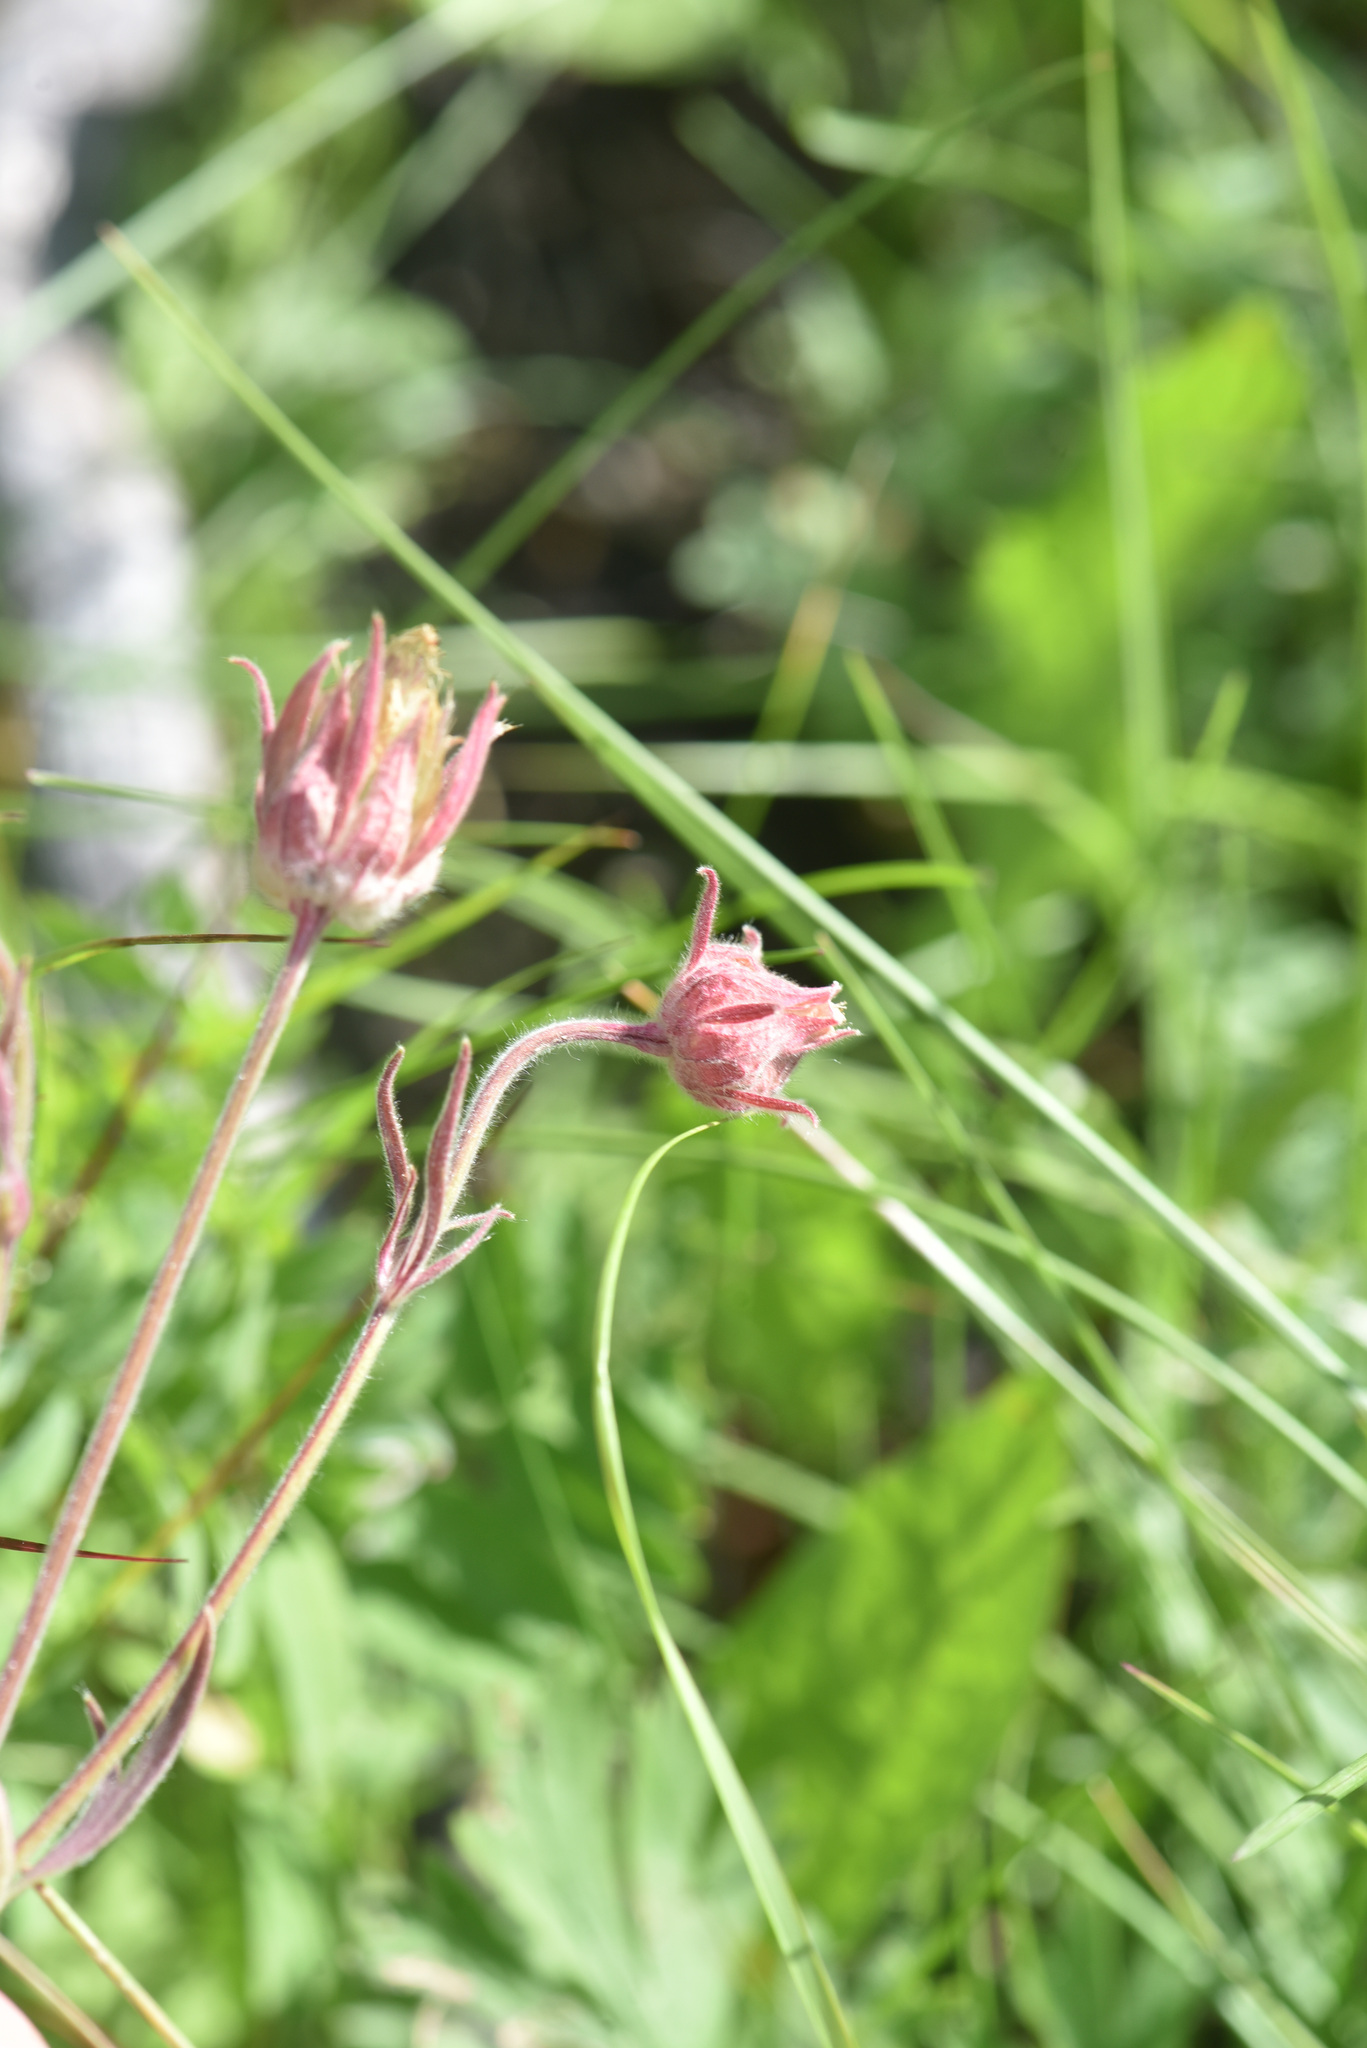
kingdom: Plantae
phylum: Tracheophyta
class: Magnoliopsida
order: Rosales
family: Rosaceae
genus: Geum
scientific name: Geum triflorum
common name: Old man's whiskers
